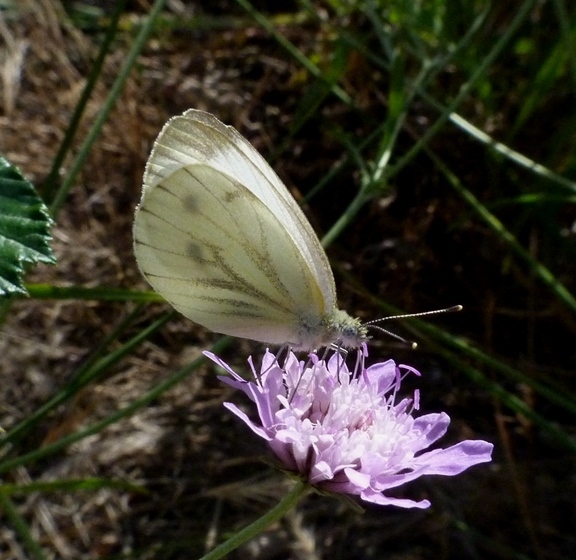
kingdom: Animalia
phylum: Arthropoda
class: Insecta
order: Lepidoptera
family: Pieridae
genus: Pieris
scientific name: Pieris napi
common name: Green-veined white
